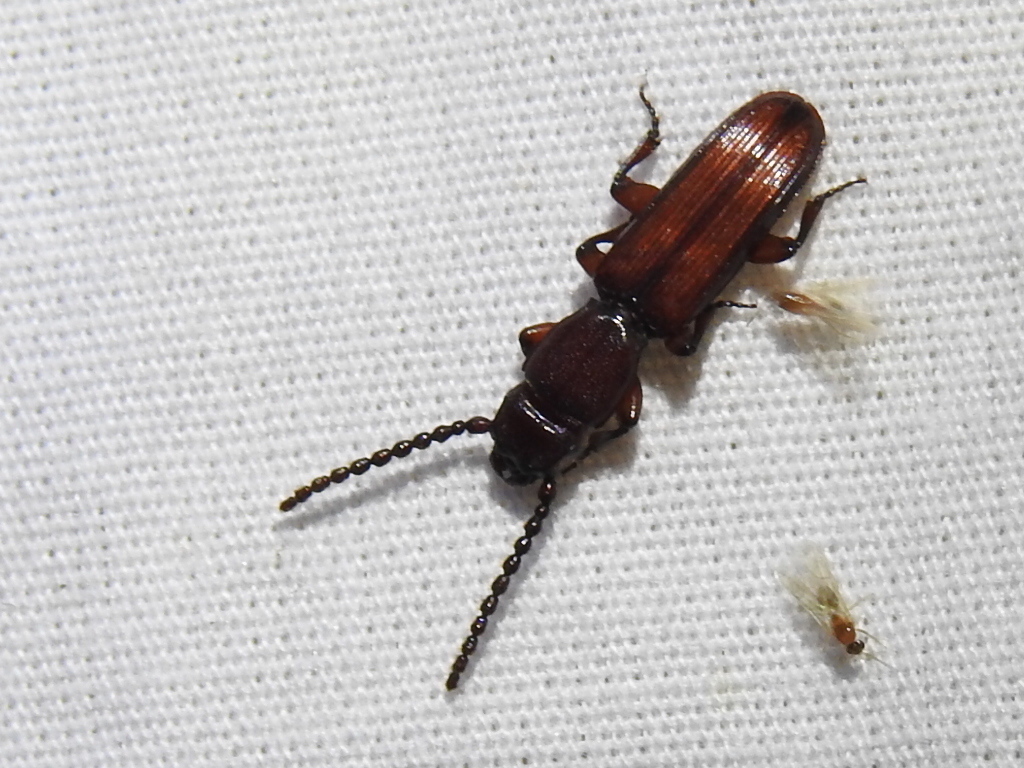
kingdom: Animalia
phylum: Arthropoda
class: Insecta
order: Coleoptera
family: Passandridae
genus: Catogenus
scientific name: Catogenus rufus
